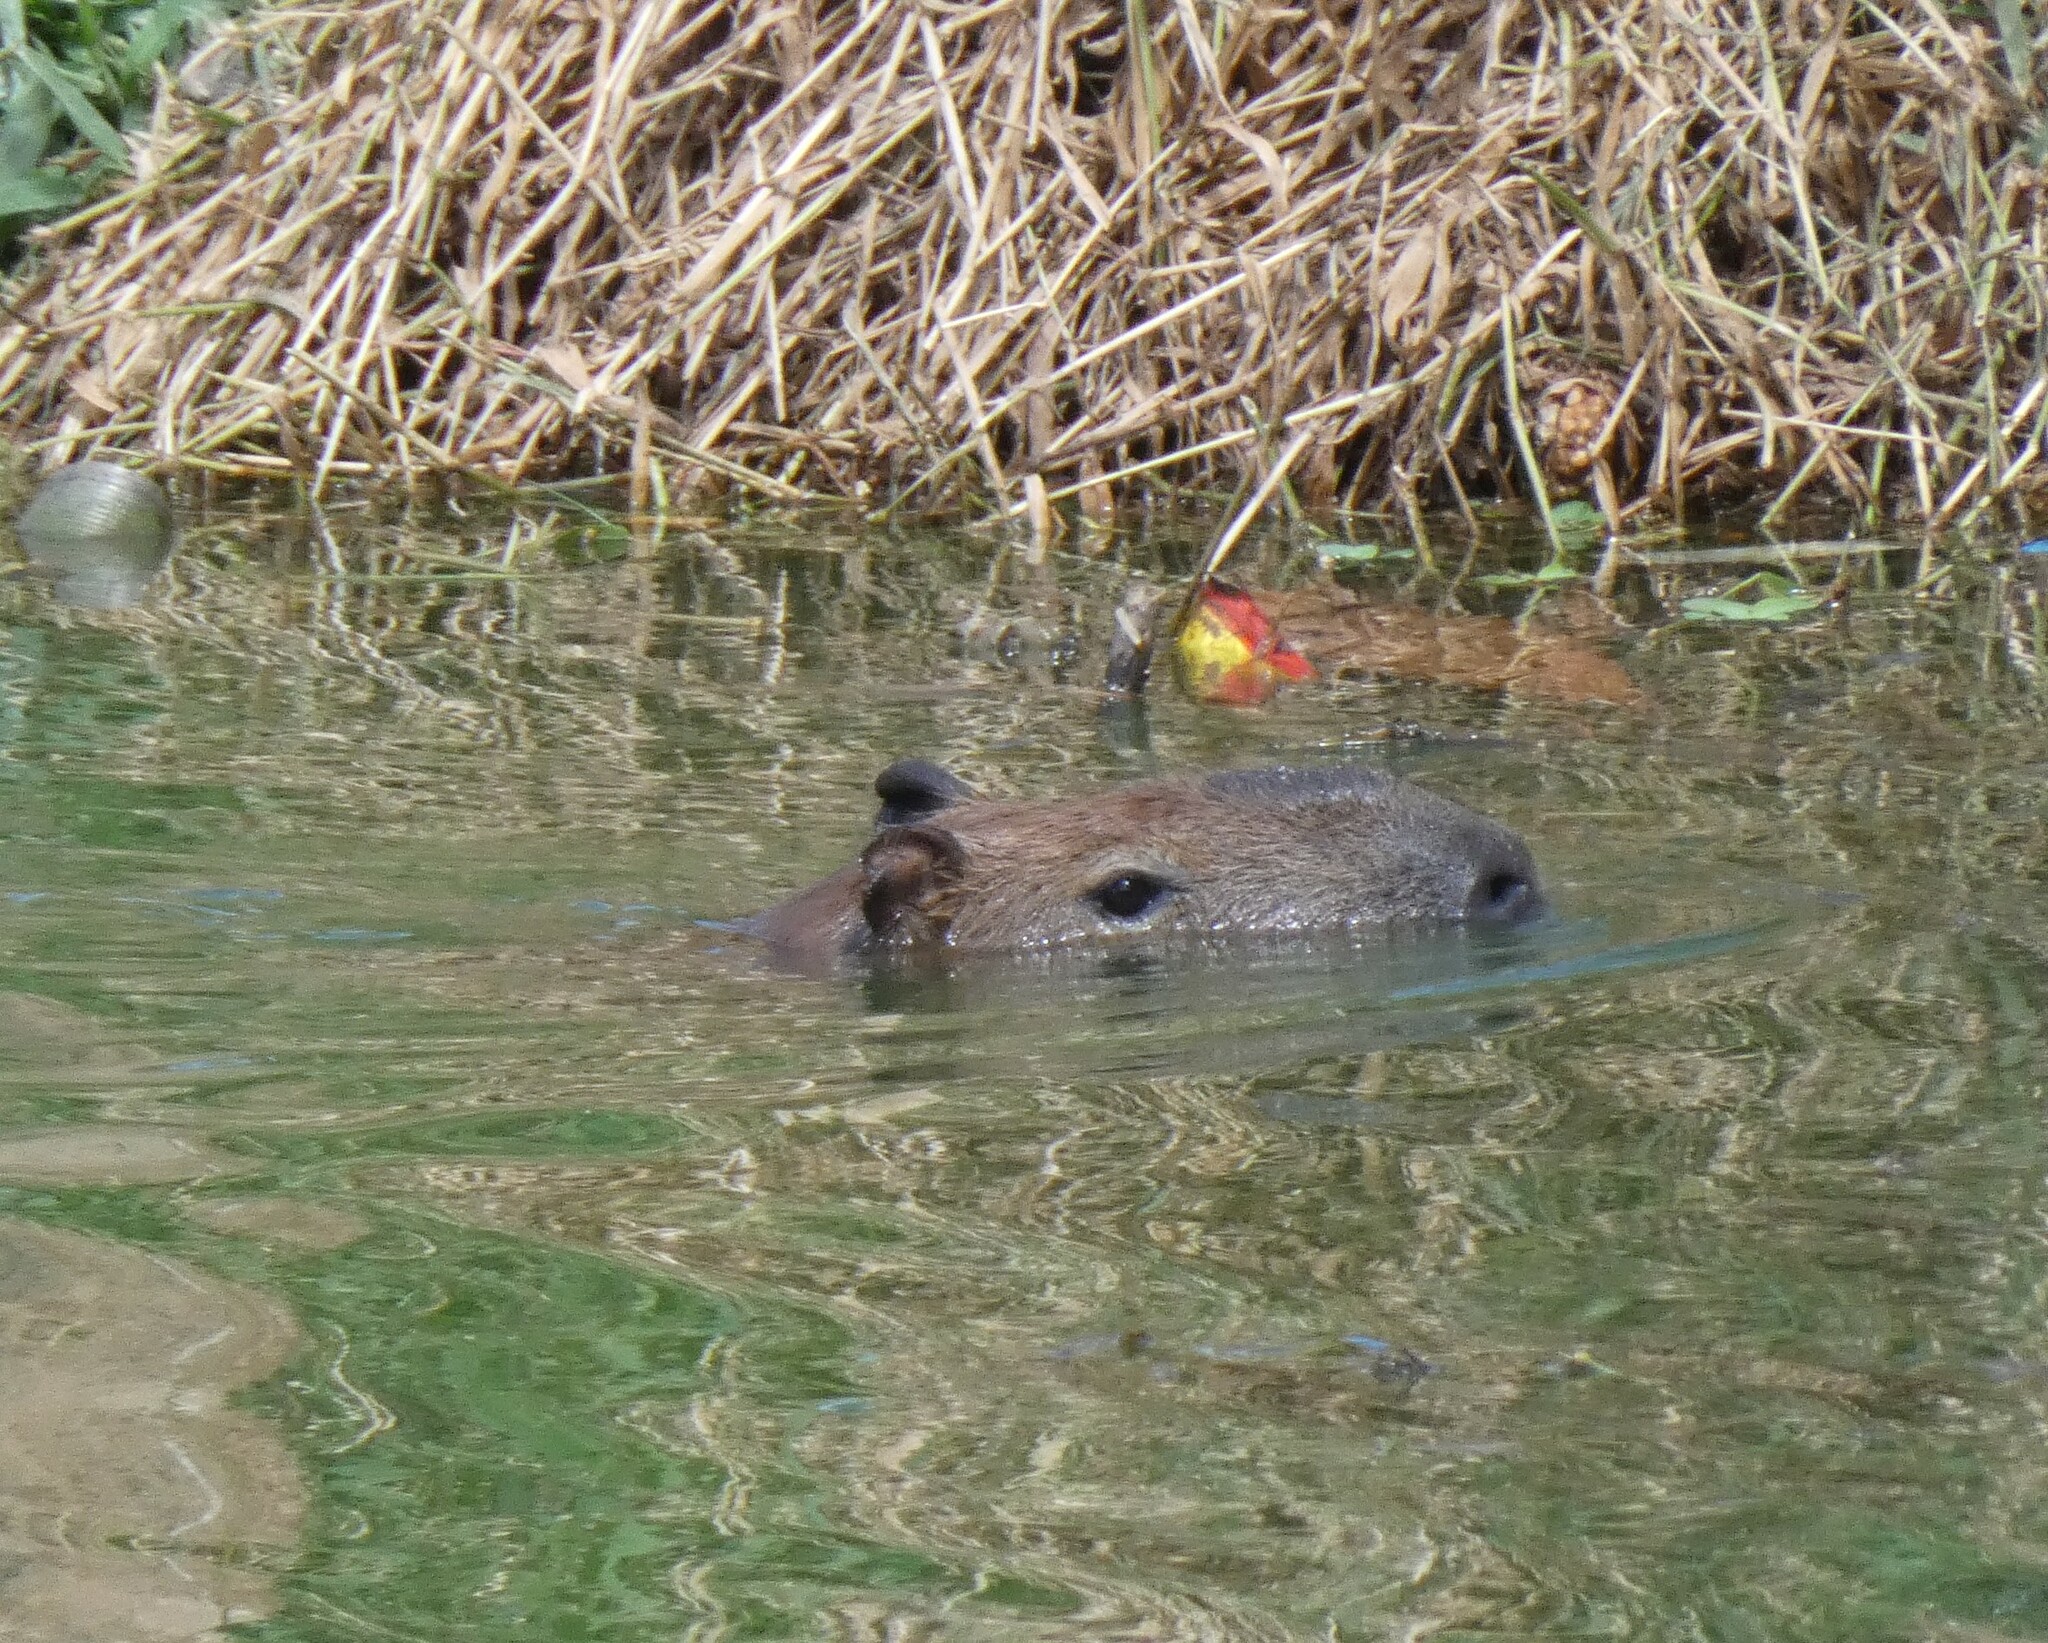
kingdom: Animalia
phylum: Chordata
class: Mammalia
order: Rodentia
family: Caviidae
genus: Hydrochoerus
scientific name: Hydrochoerus hydrochaeris
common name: Capybara
